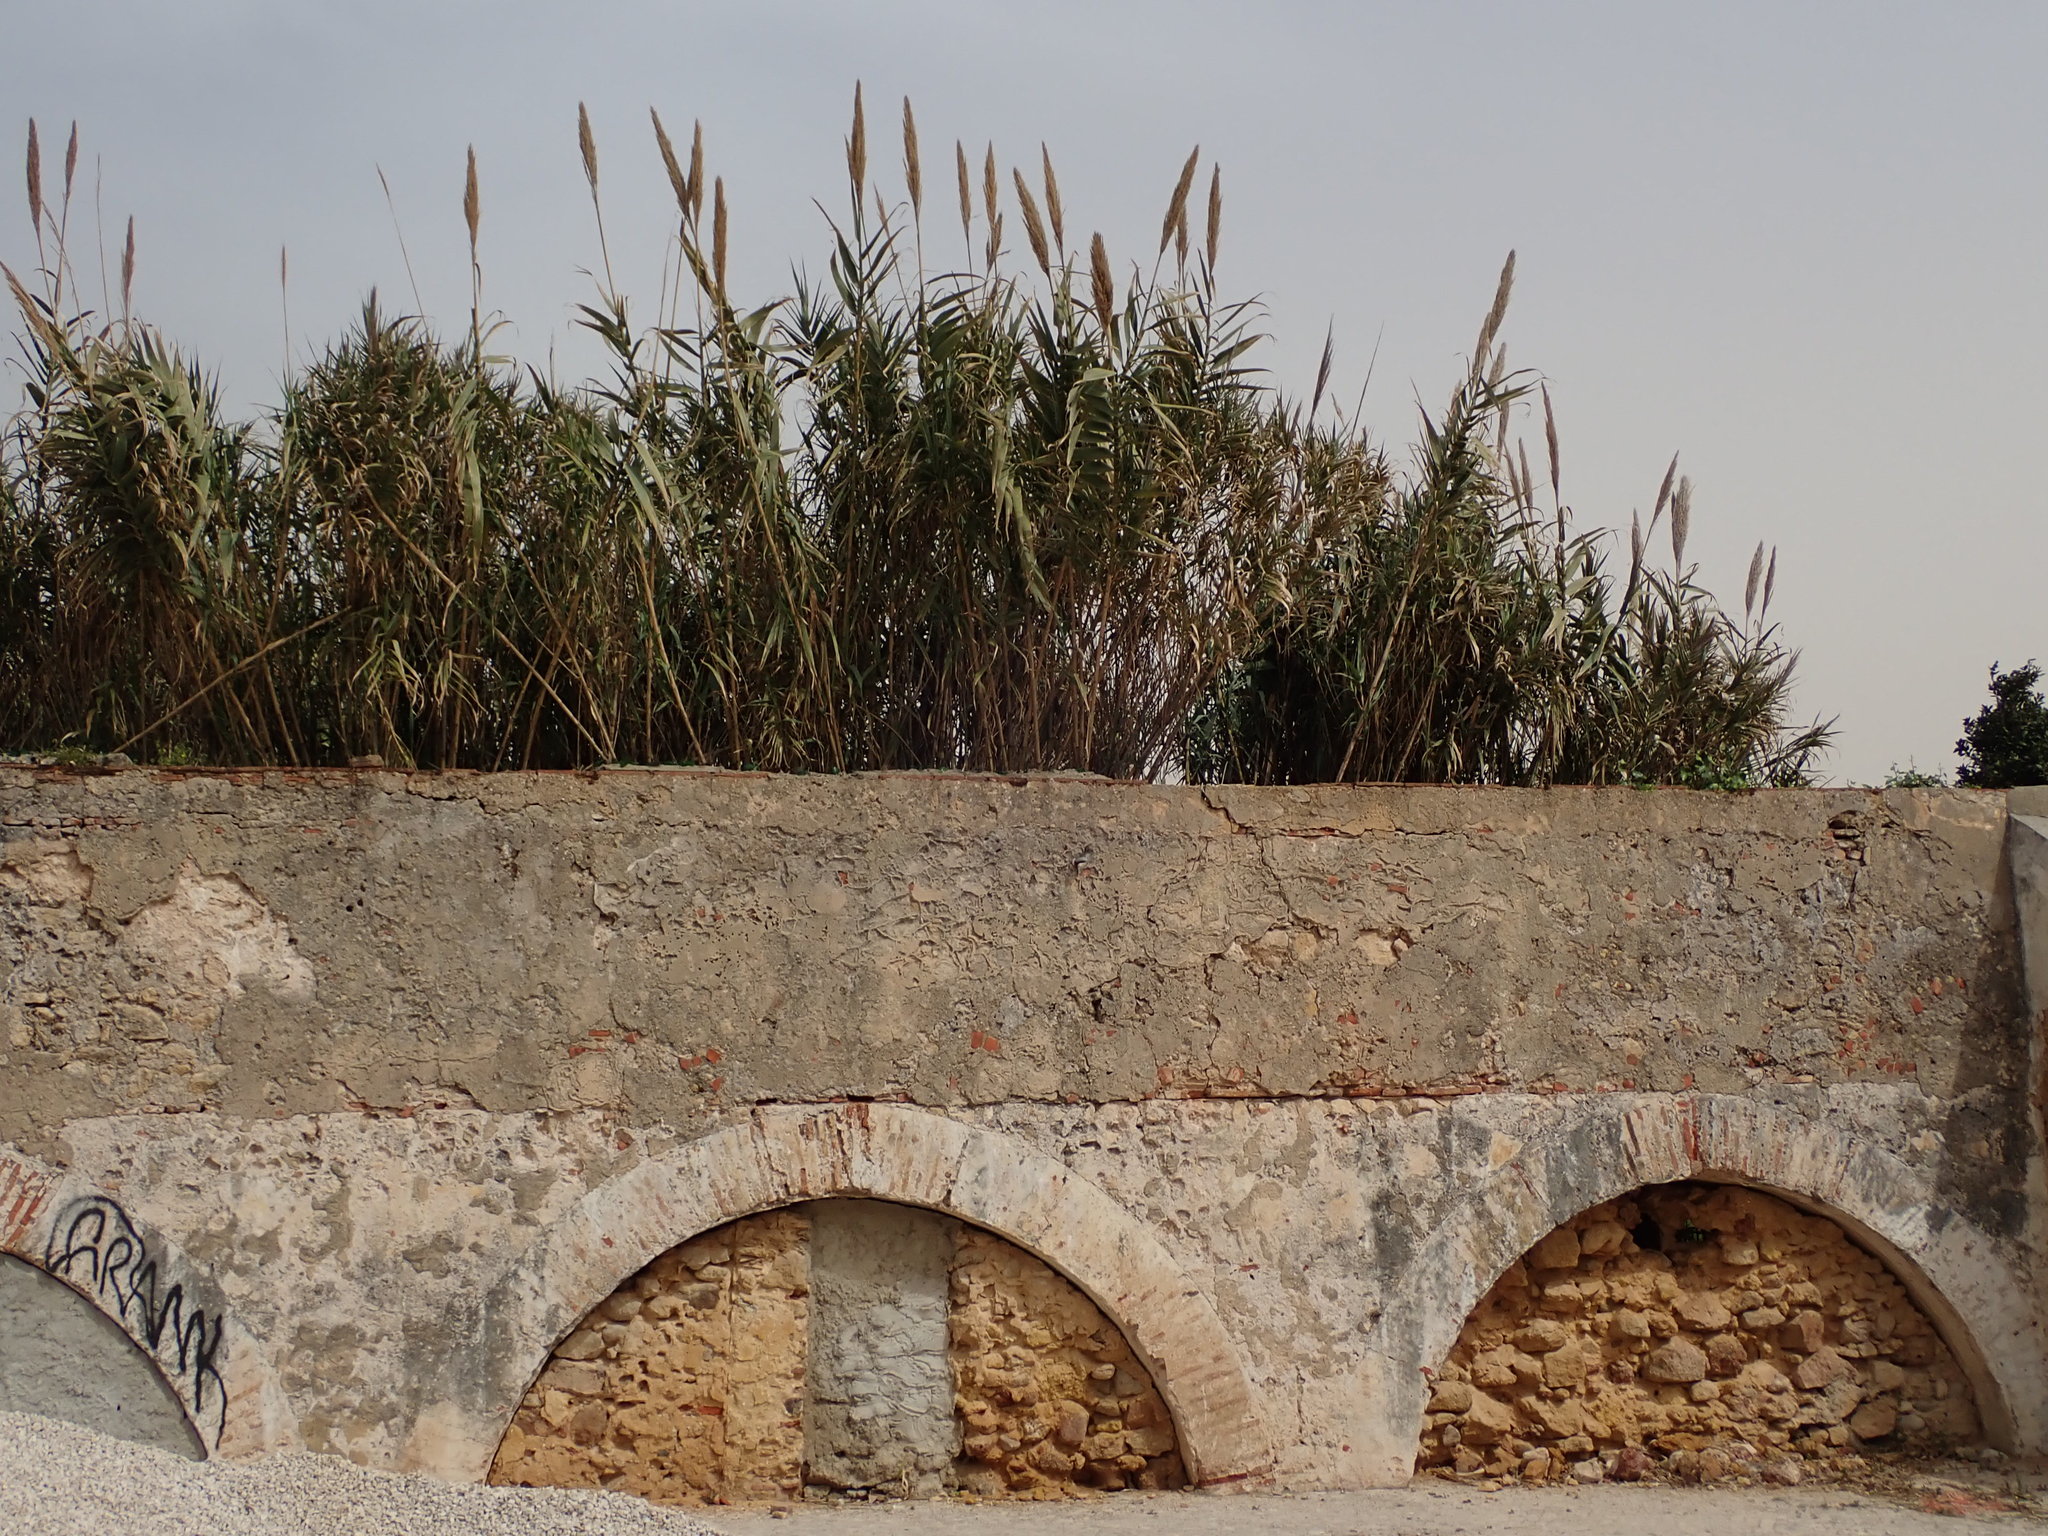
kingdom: Plantae
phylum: Tracheophyta
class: Liliopsida
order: Poales
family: Poaceae
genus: Arundo
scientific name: Arundo donax
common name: Giant reed
